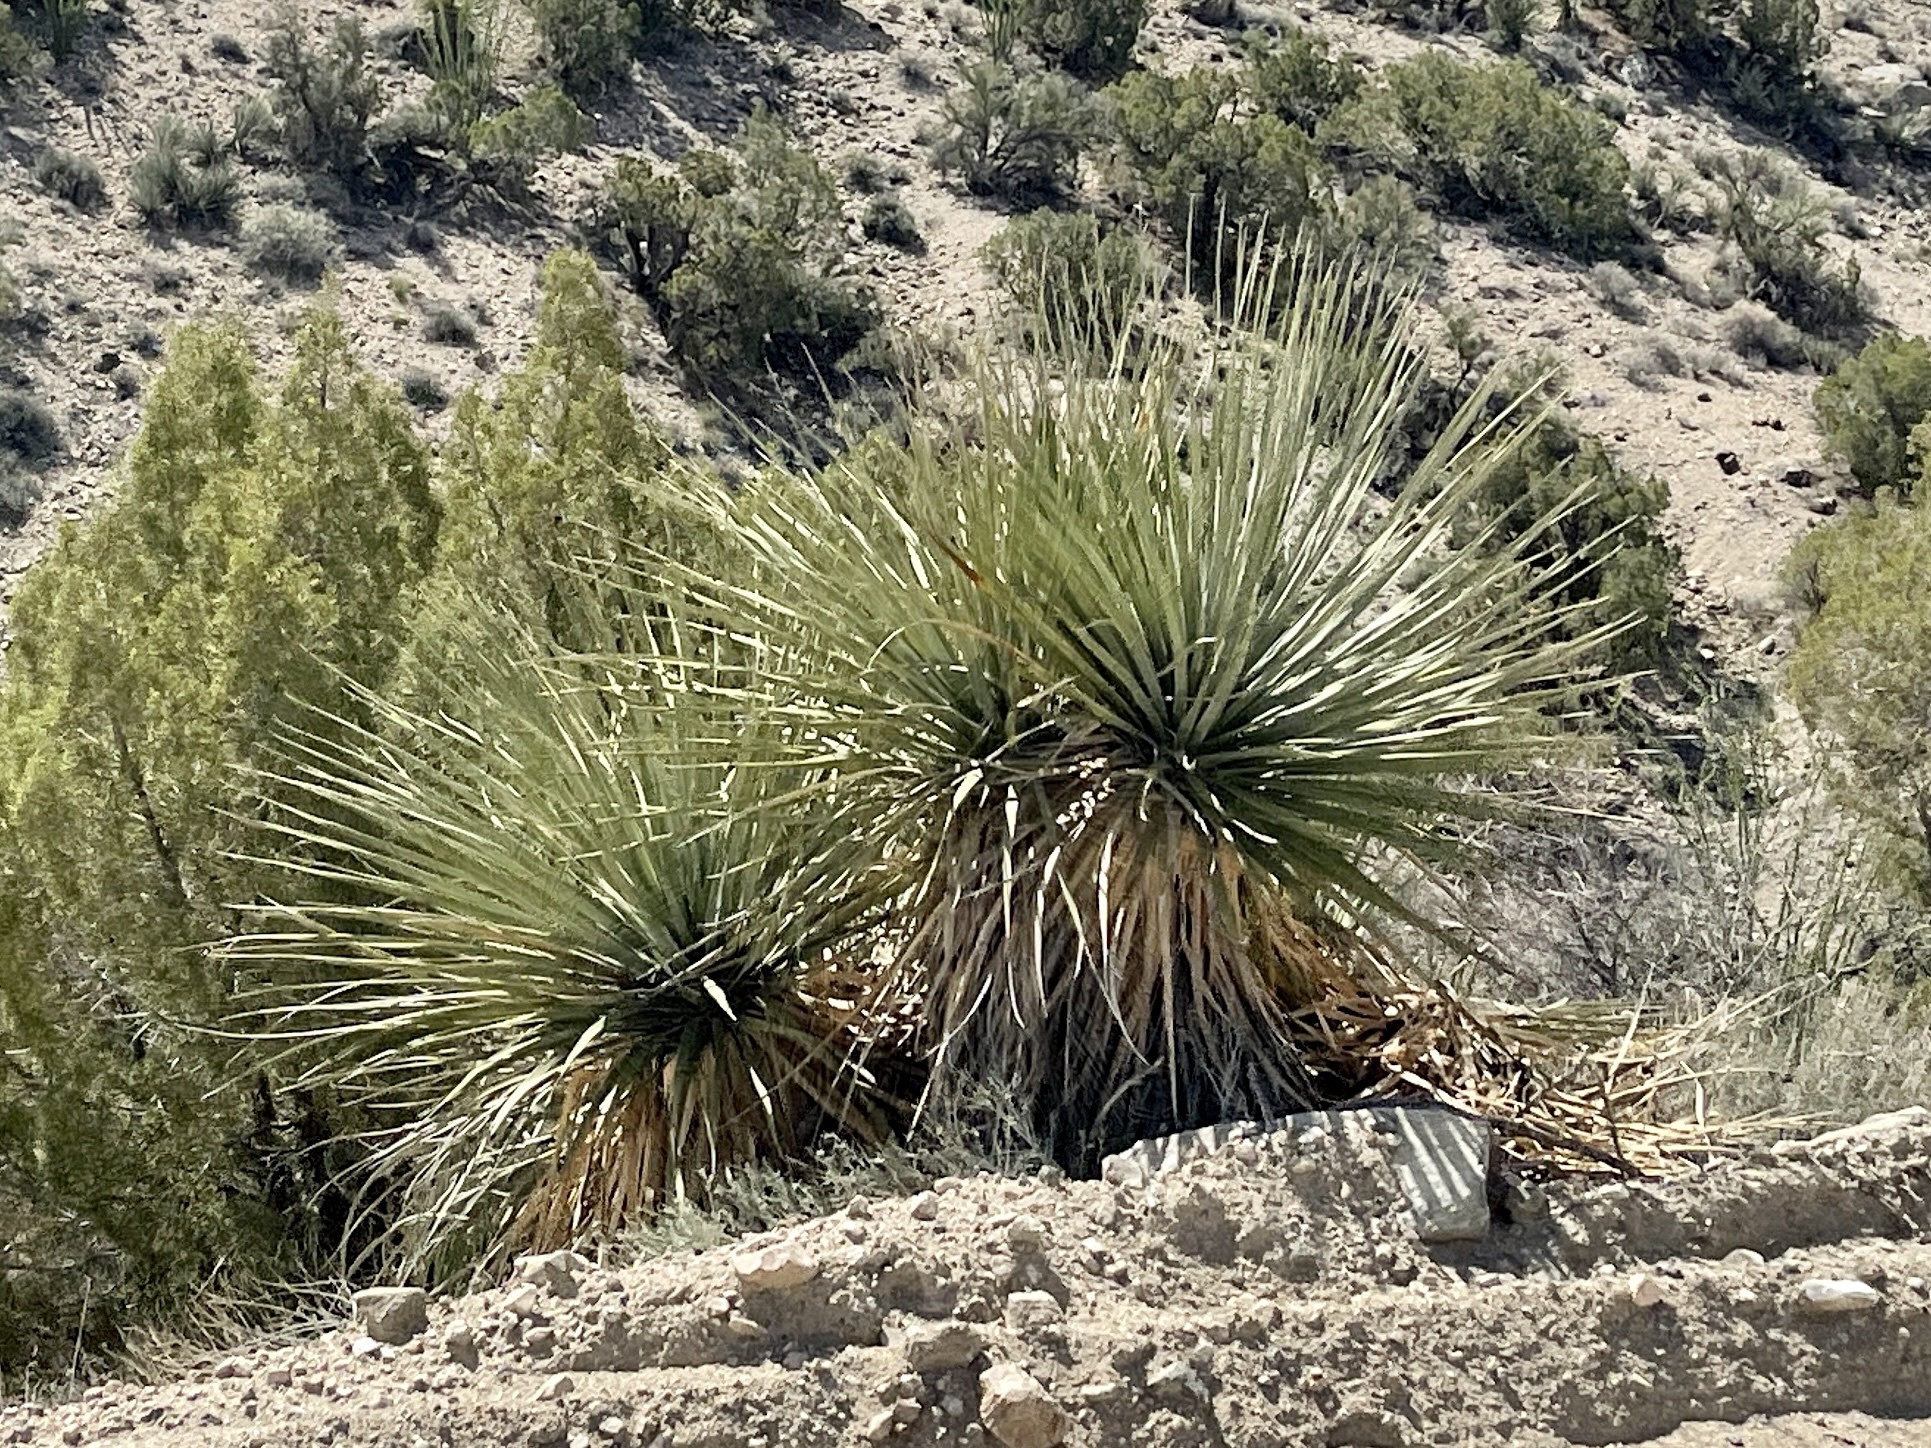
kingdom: Plantae
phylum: Tracheophyta
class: Liliopsida
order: Asparagales
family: Asparagaceae
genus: Nolina
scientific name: Nolina bigelovii
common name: Bigelow bear-grass
